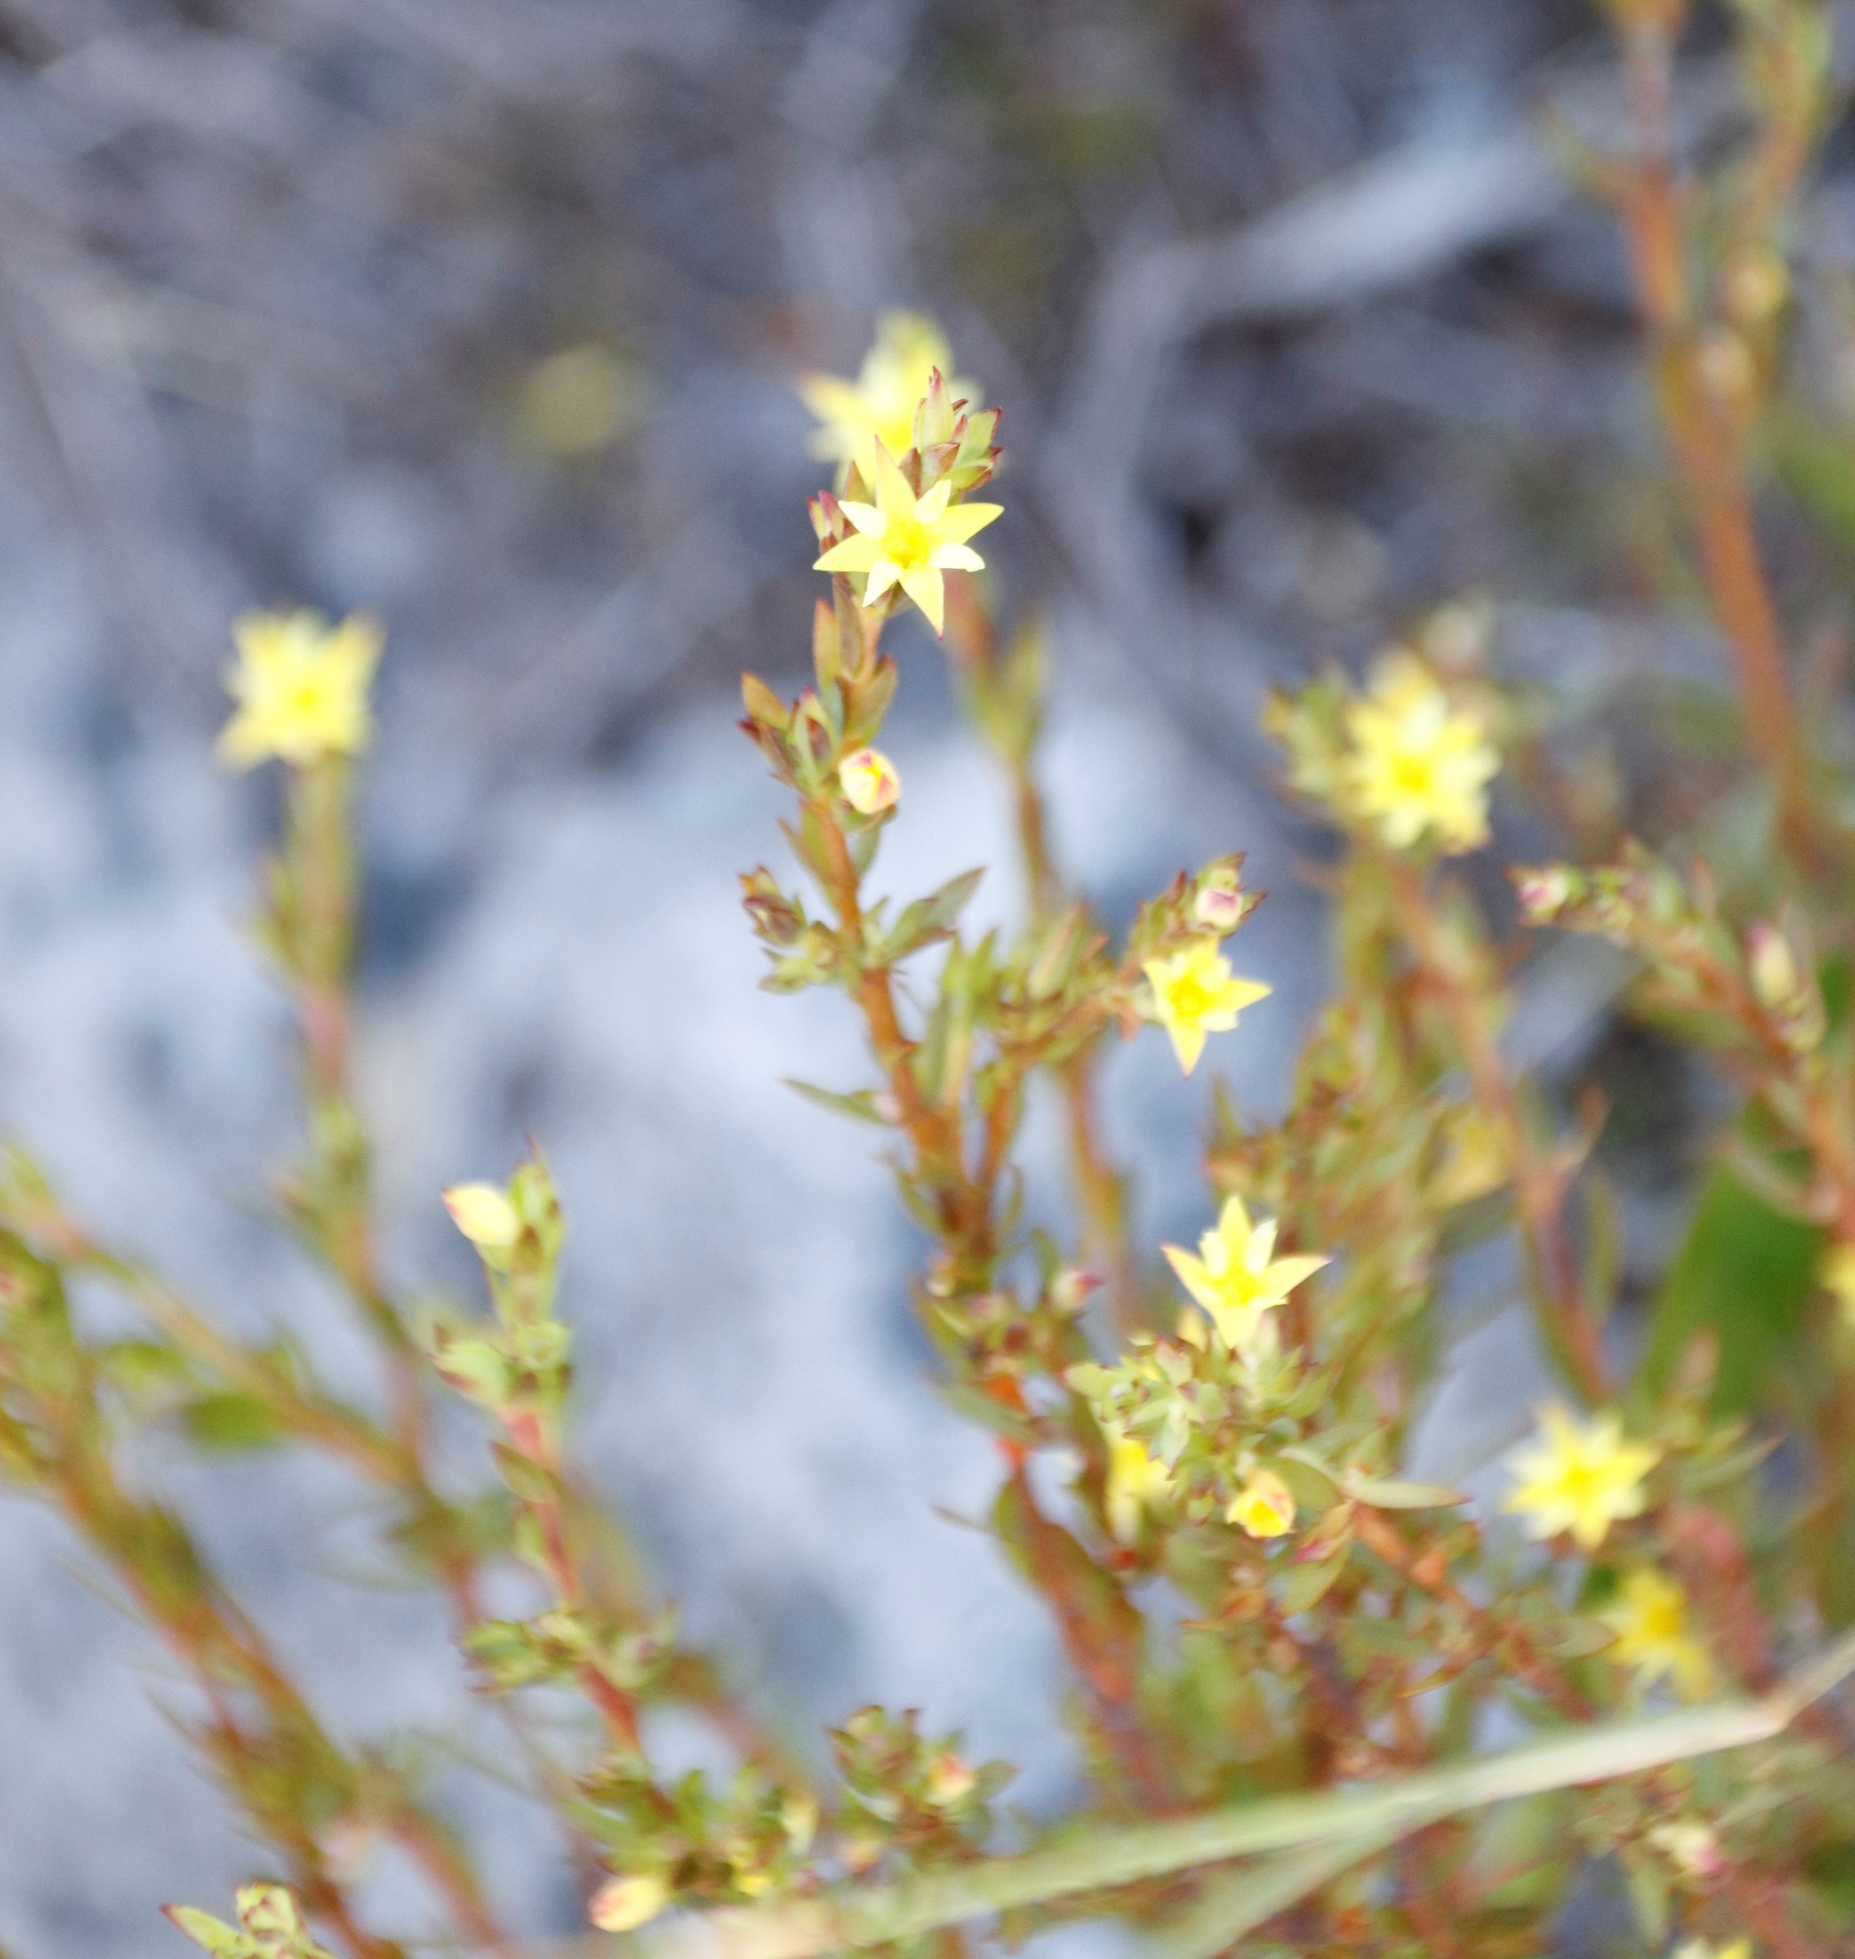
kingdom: Plantae
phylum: Tracheophyta
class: Magnoliopsida
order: Malvales
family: Thymelaeaceae
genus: Gnidia
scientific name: Gnidia juniperifolia
